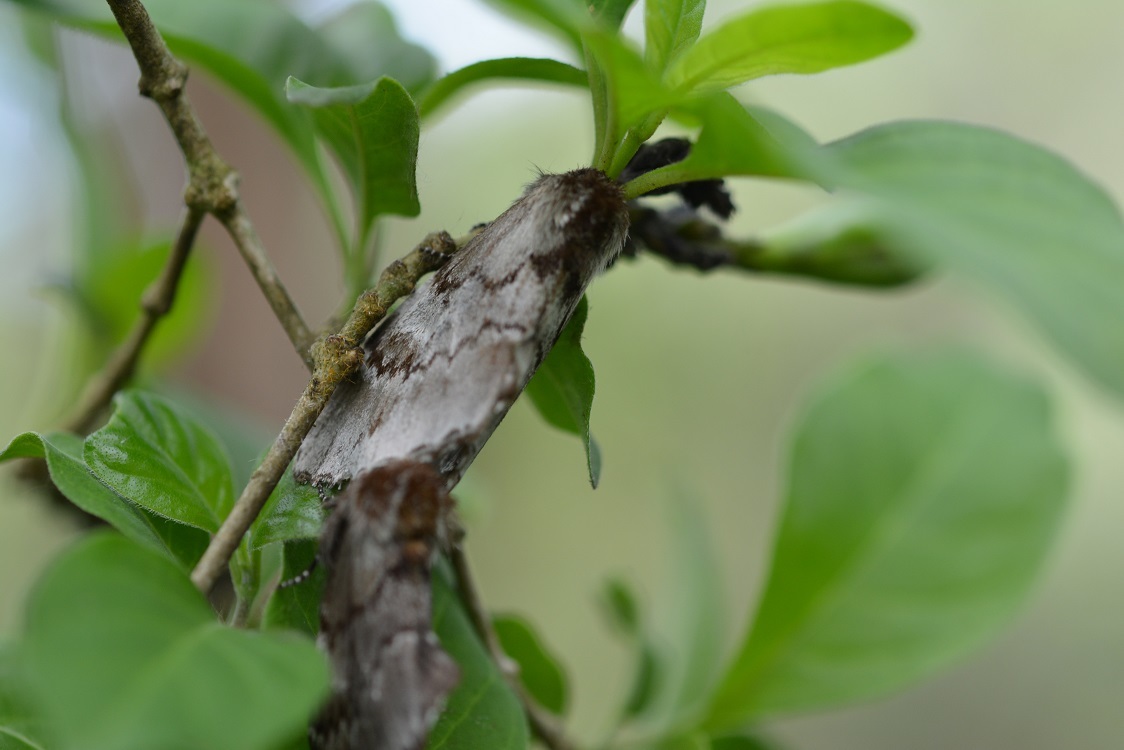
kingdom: Animalia
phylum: Arthropoda
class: Insecta
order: Lepidoptera
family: Notodontidae
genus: Cargida
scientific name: Cargida pyrrha
